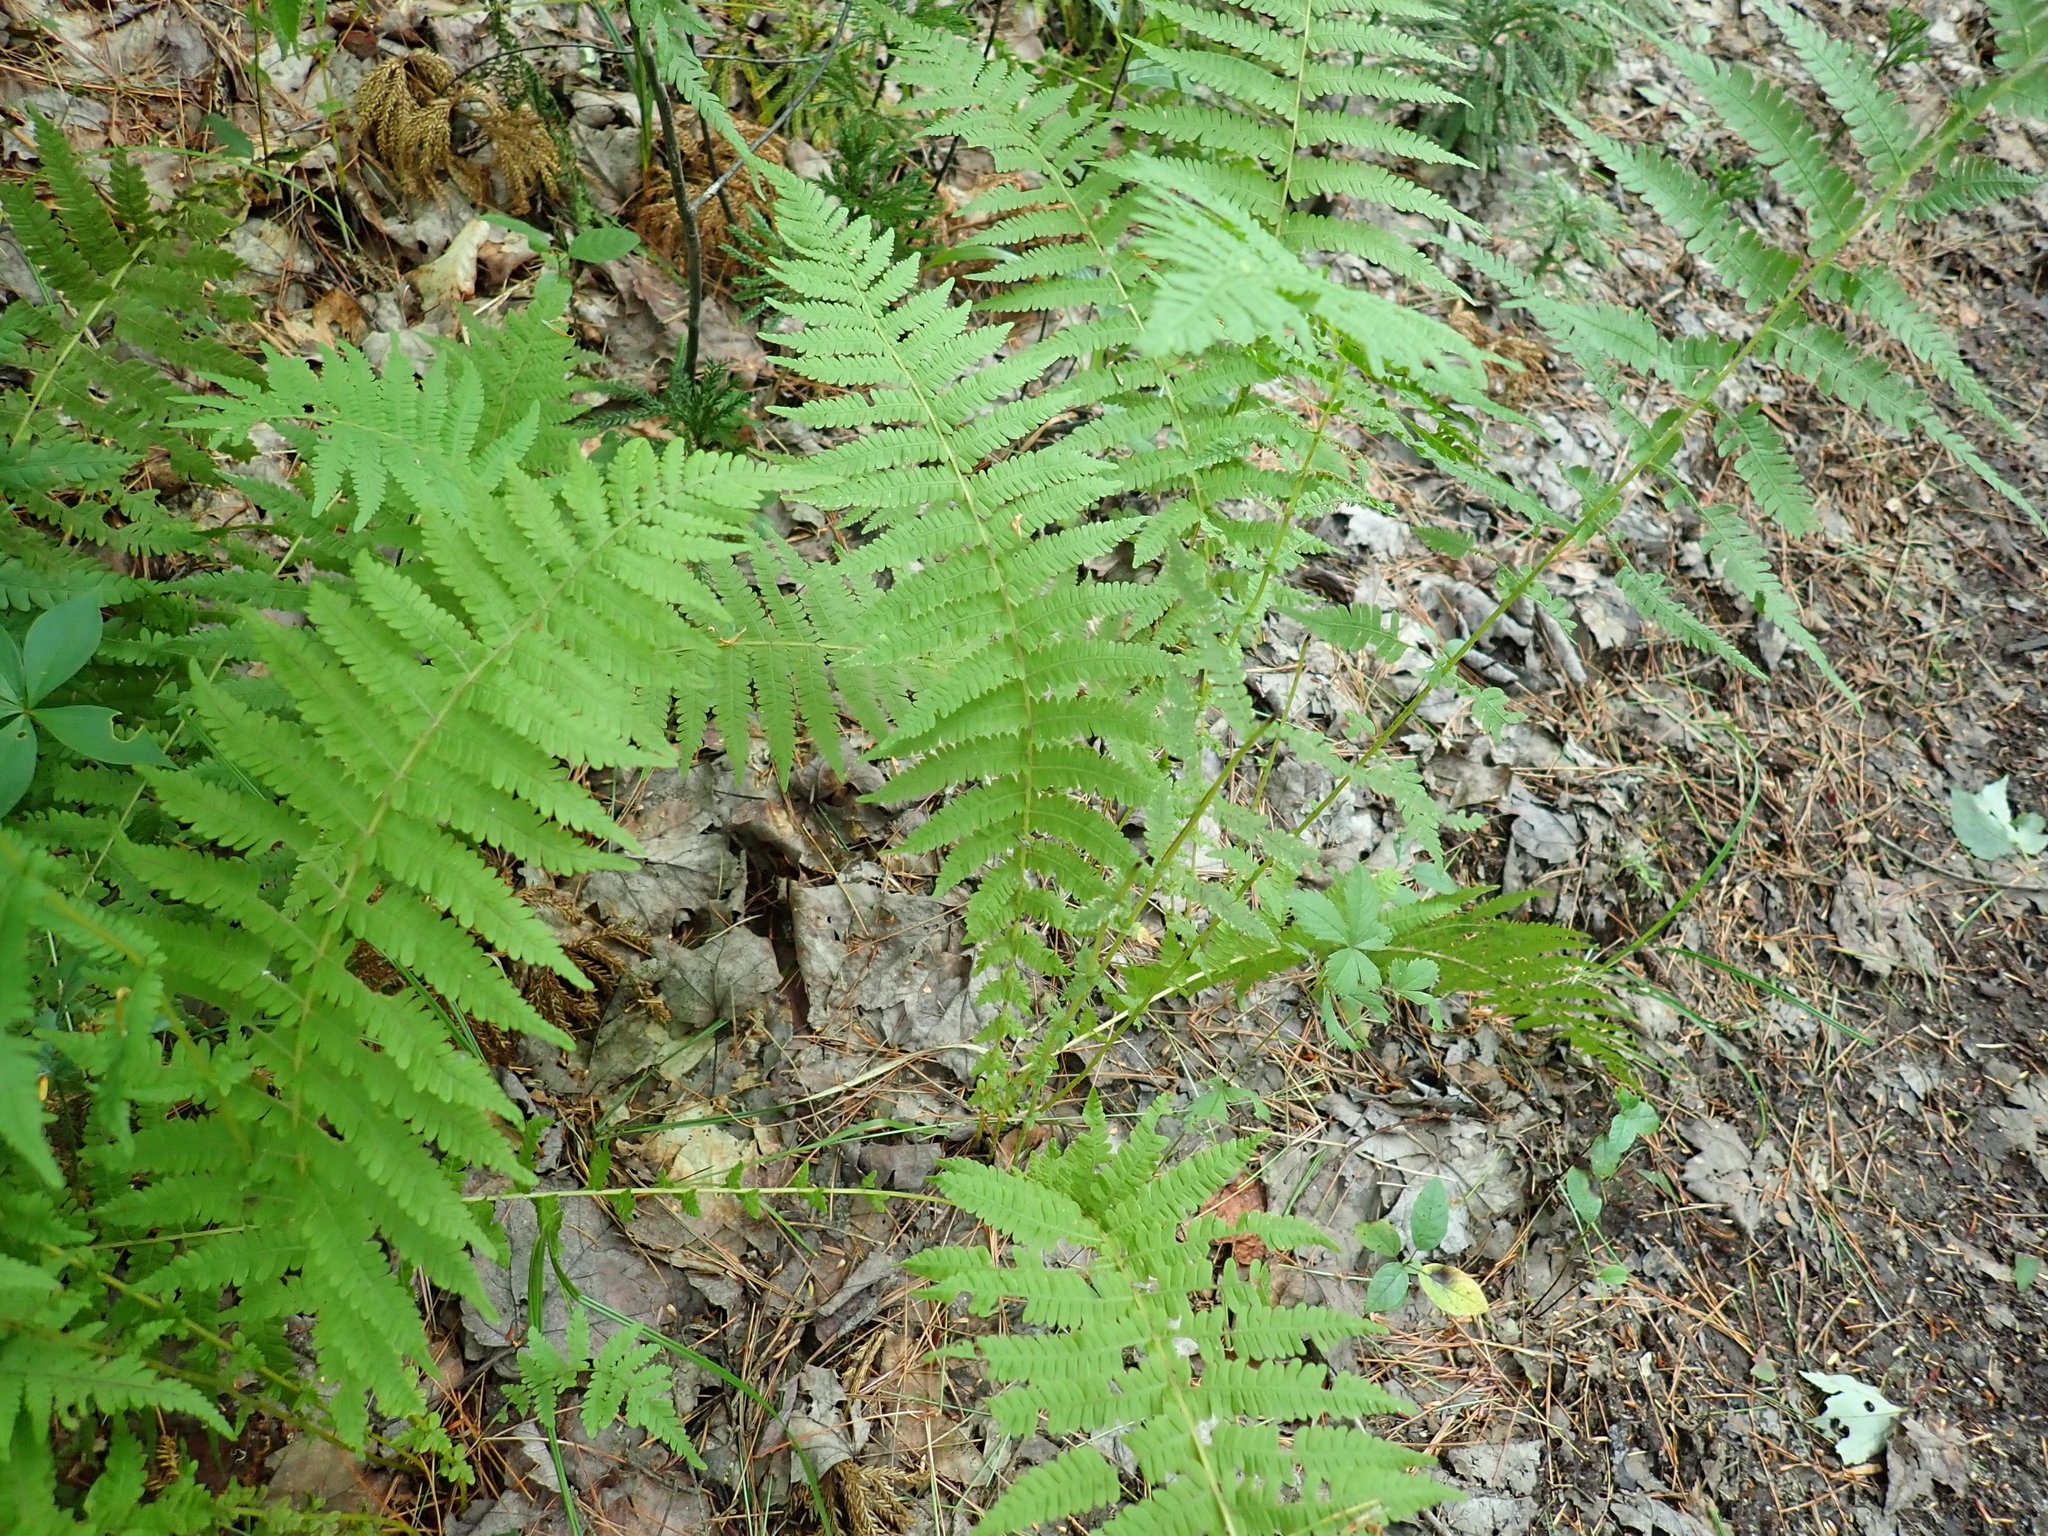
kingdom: Plantae
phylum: Tracheophyta
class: Polypodiopsida
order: Polypodiales
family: Thelypteridaceae
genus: Amauropelta
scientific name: Amauropelta noveboracensis
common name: New york fern
